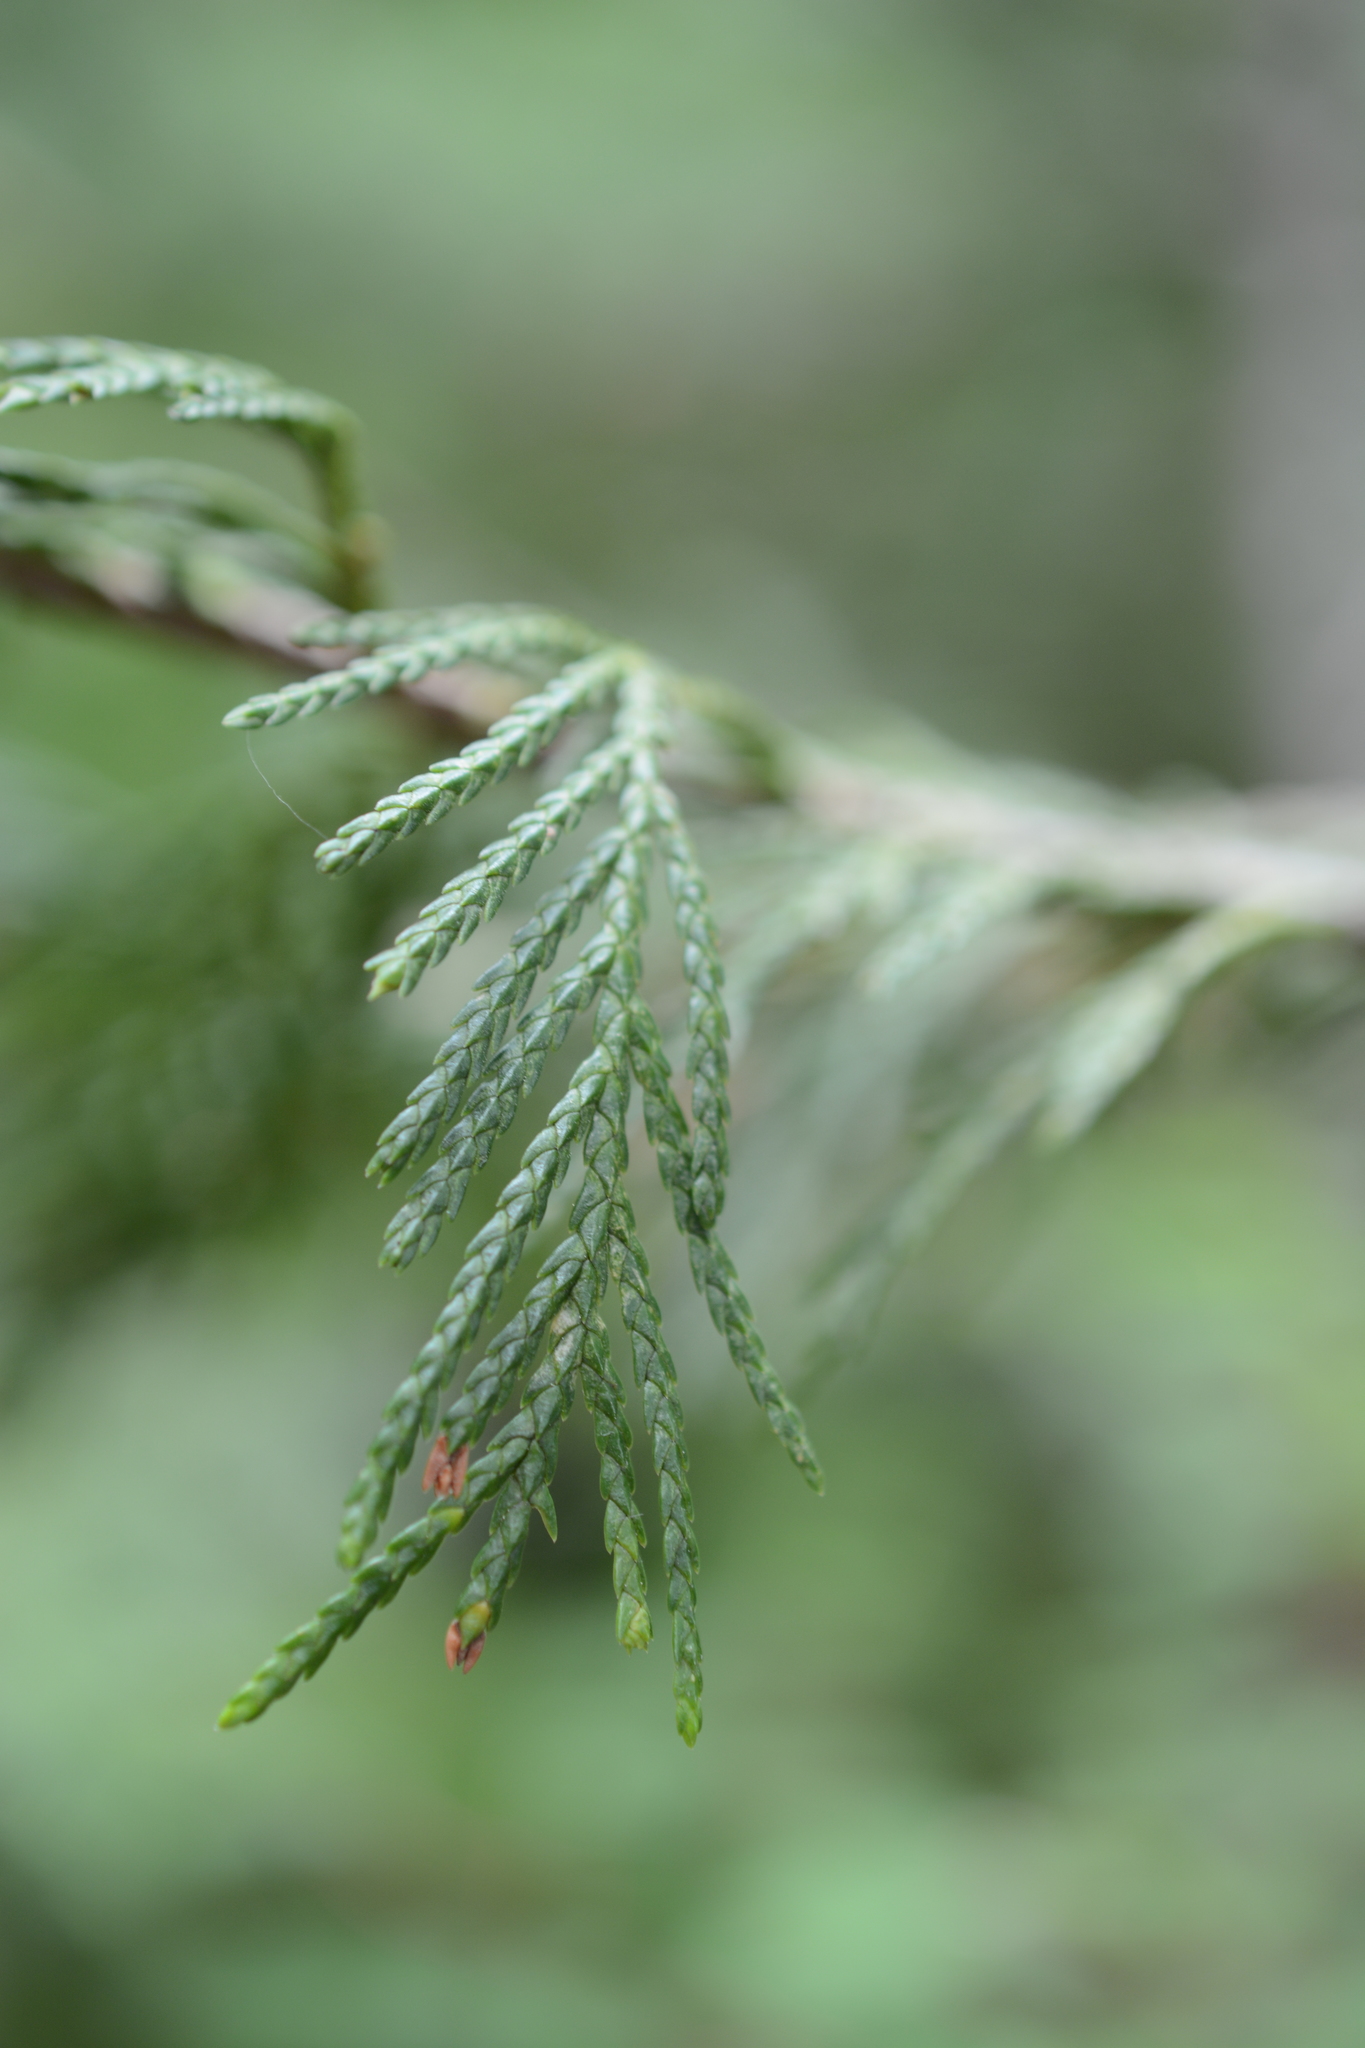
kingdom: Plantae
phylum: Tracheophyta
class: Pinopsida
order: Pinales
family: Cupressaceae
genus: Xanthocyparis
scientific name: Xanthocyparis nootkatensis
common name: Nootka cypress
